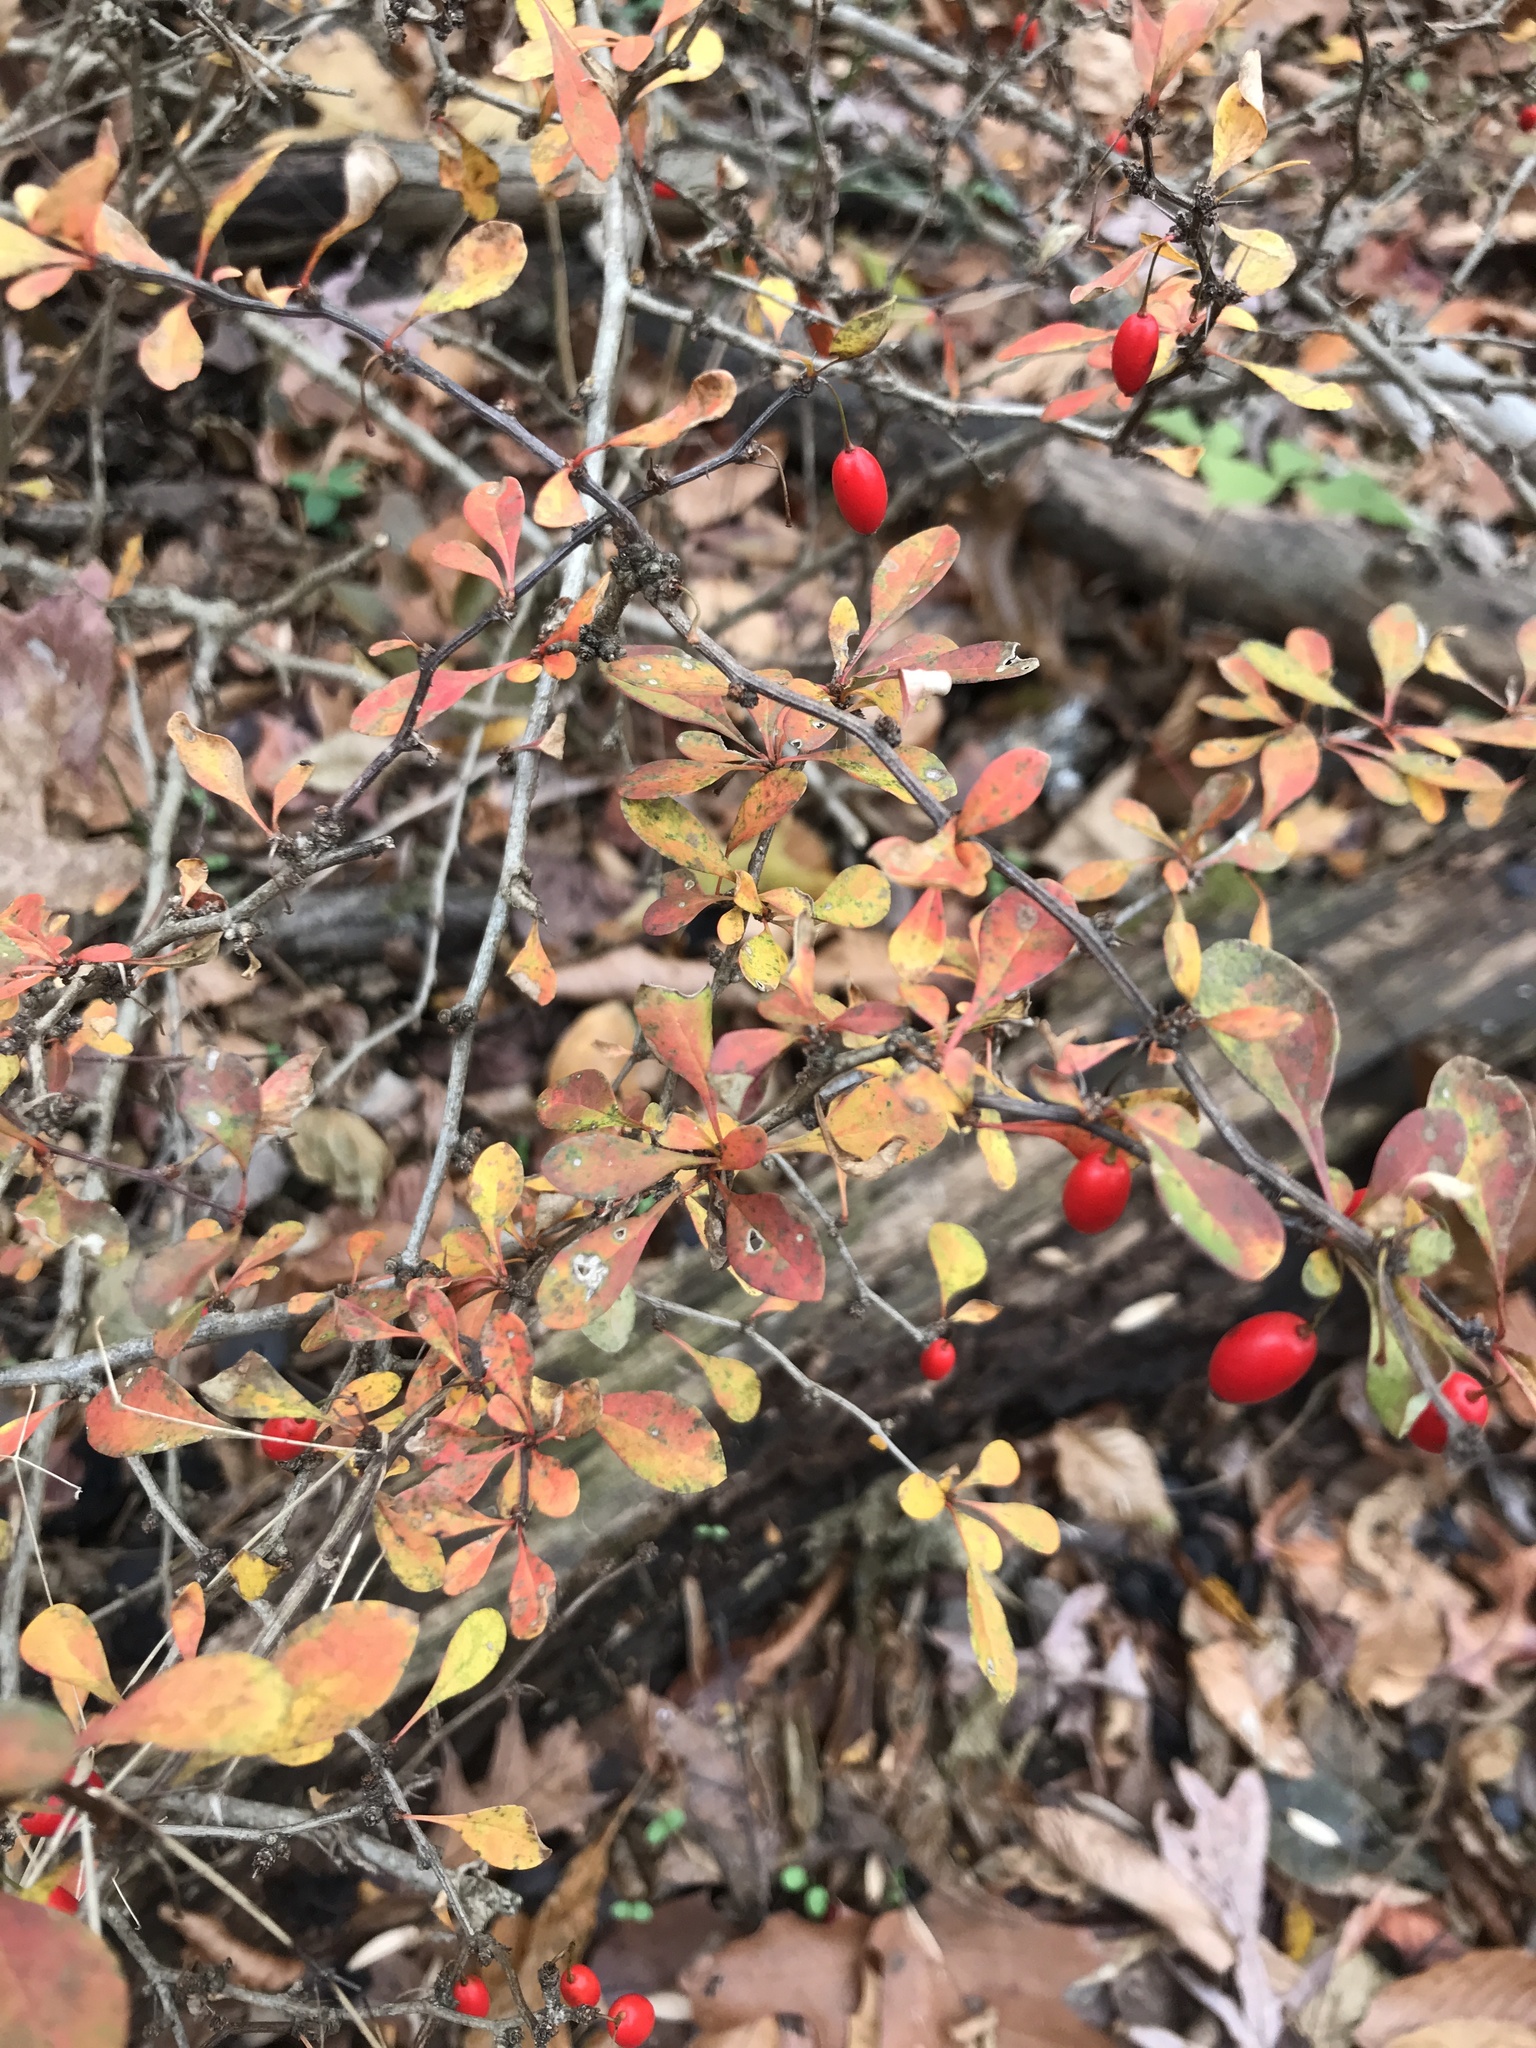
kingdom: Plantae
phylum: Tracheophyta
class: Magnoliopsida
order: Ranunculales
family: Berberidaceae
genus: Berberis
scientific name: Berberis thunbergii
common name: Japanese barberry
